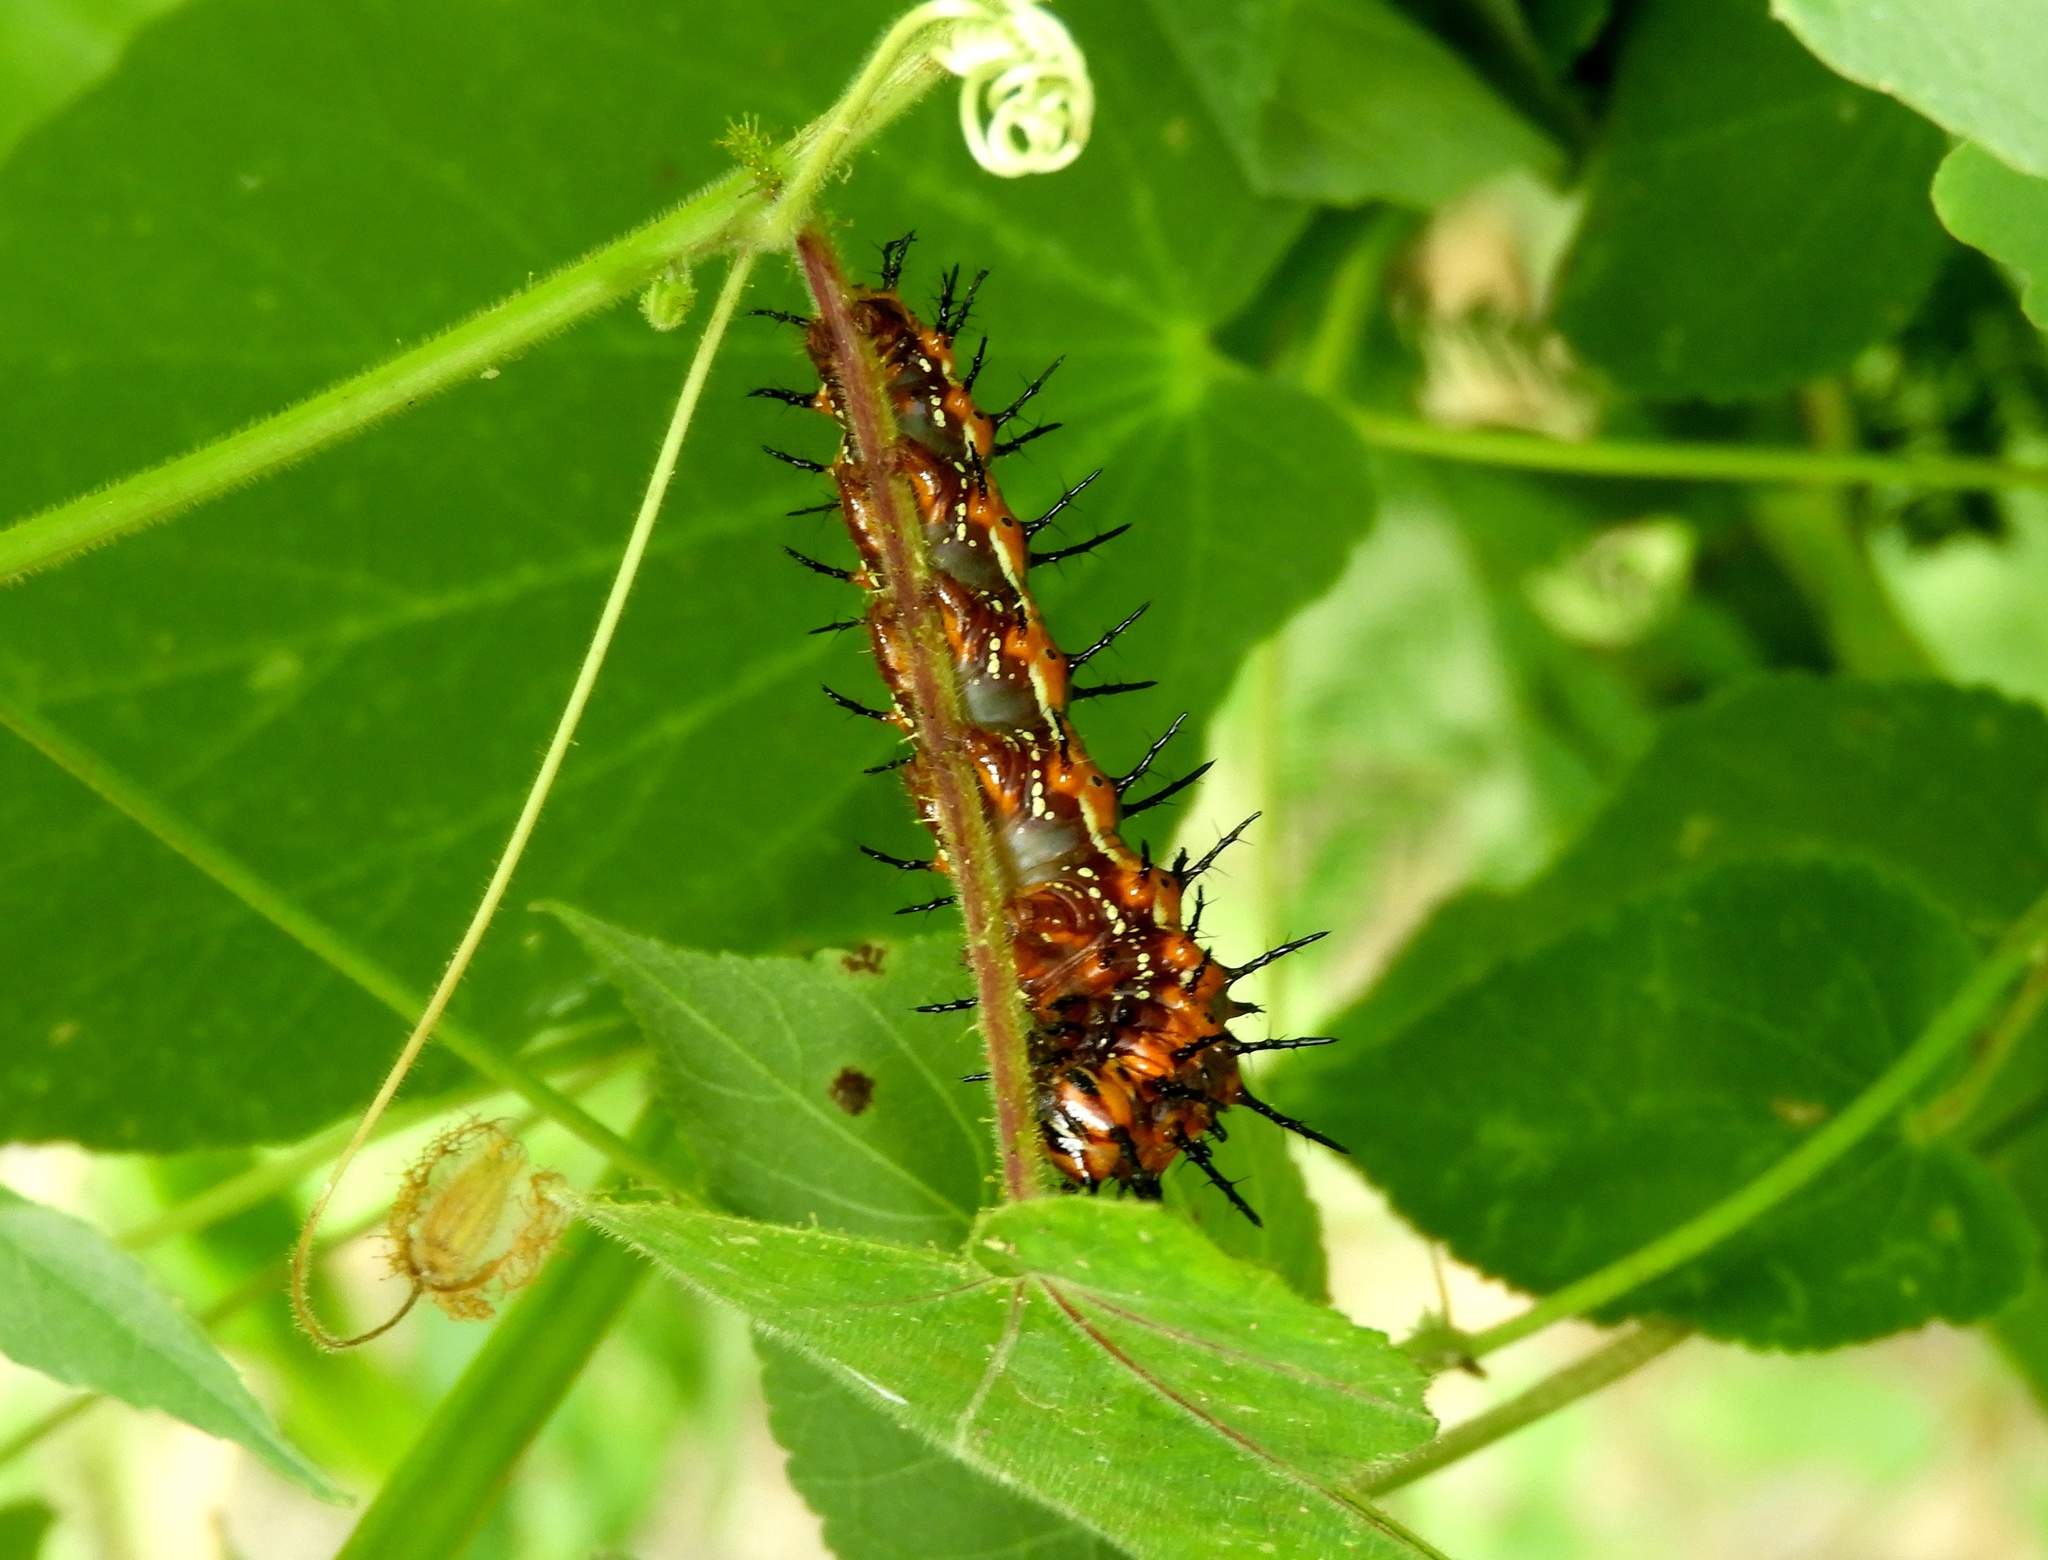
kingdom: Animalia
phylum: Arthropoda
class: Insecta
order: Lepidoptera
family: Nymphalidae
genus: Dione
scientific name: Dione vanillae
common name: Gulf fritillary
